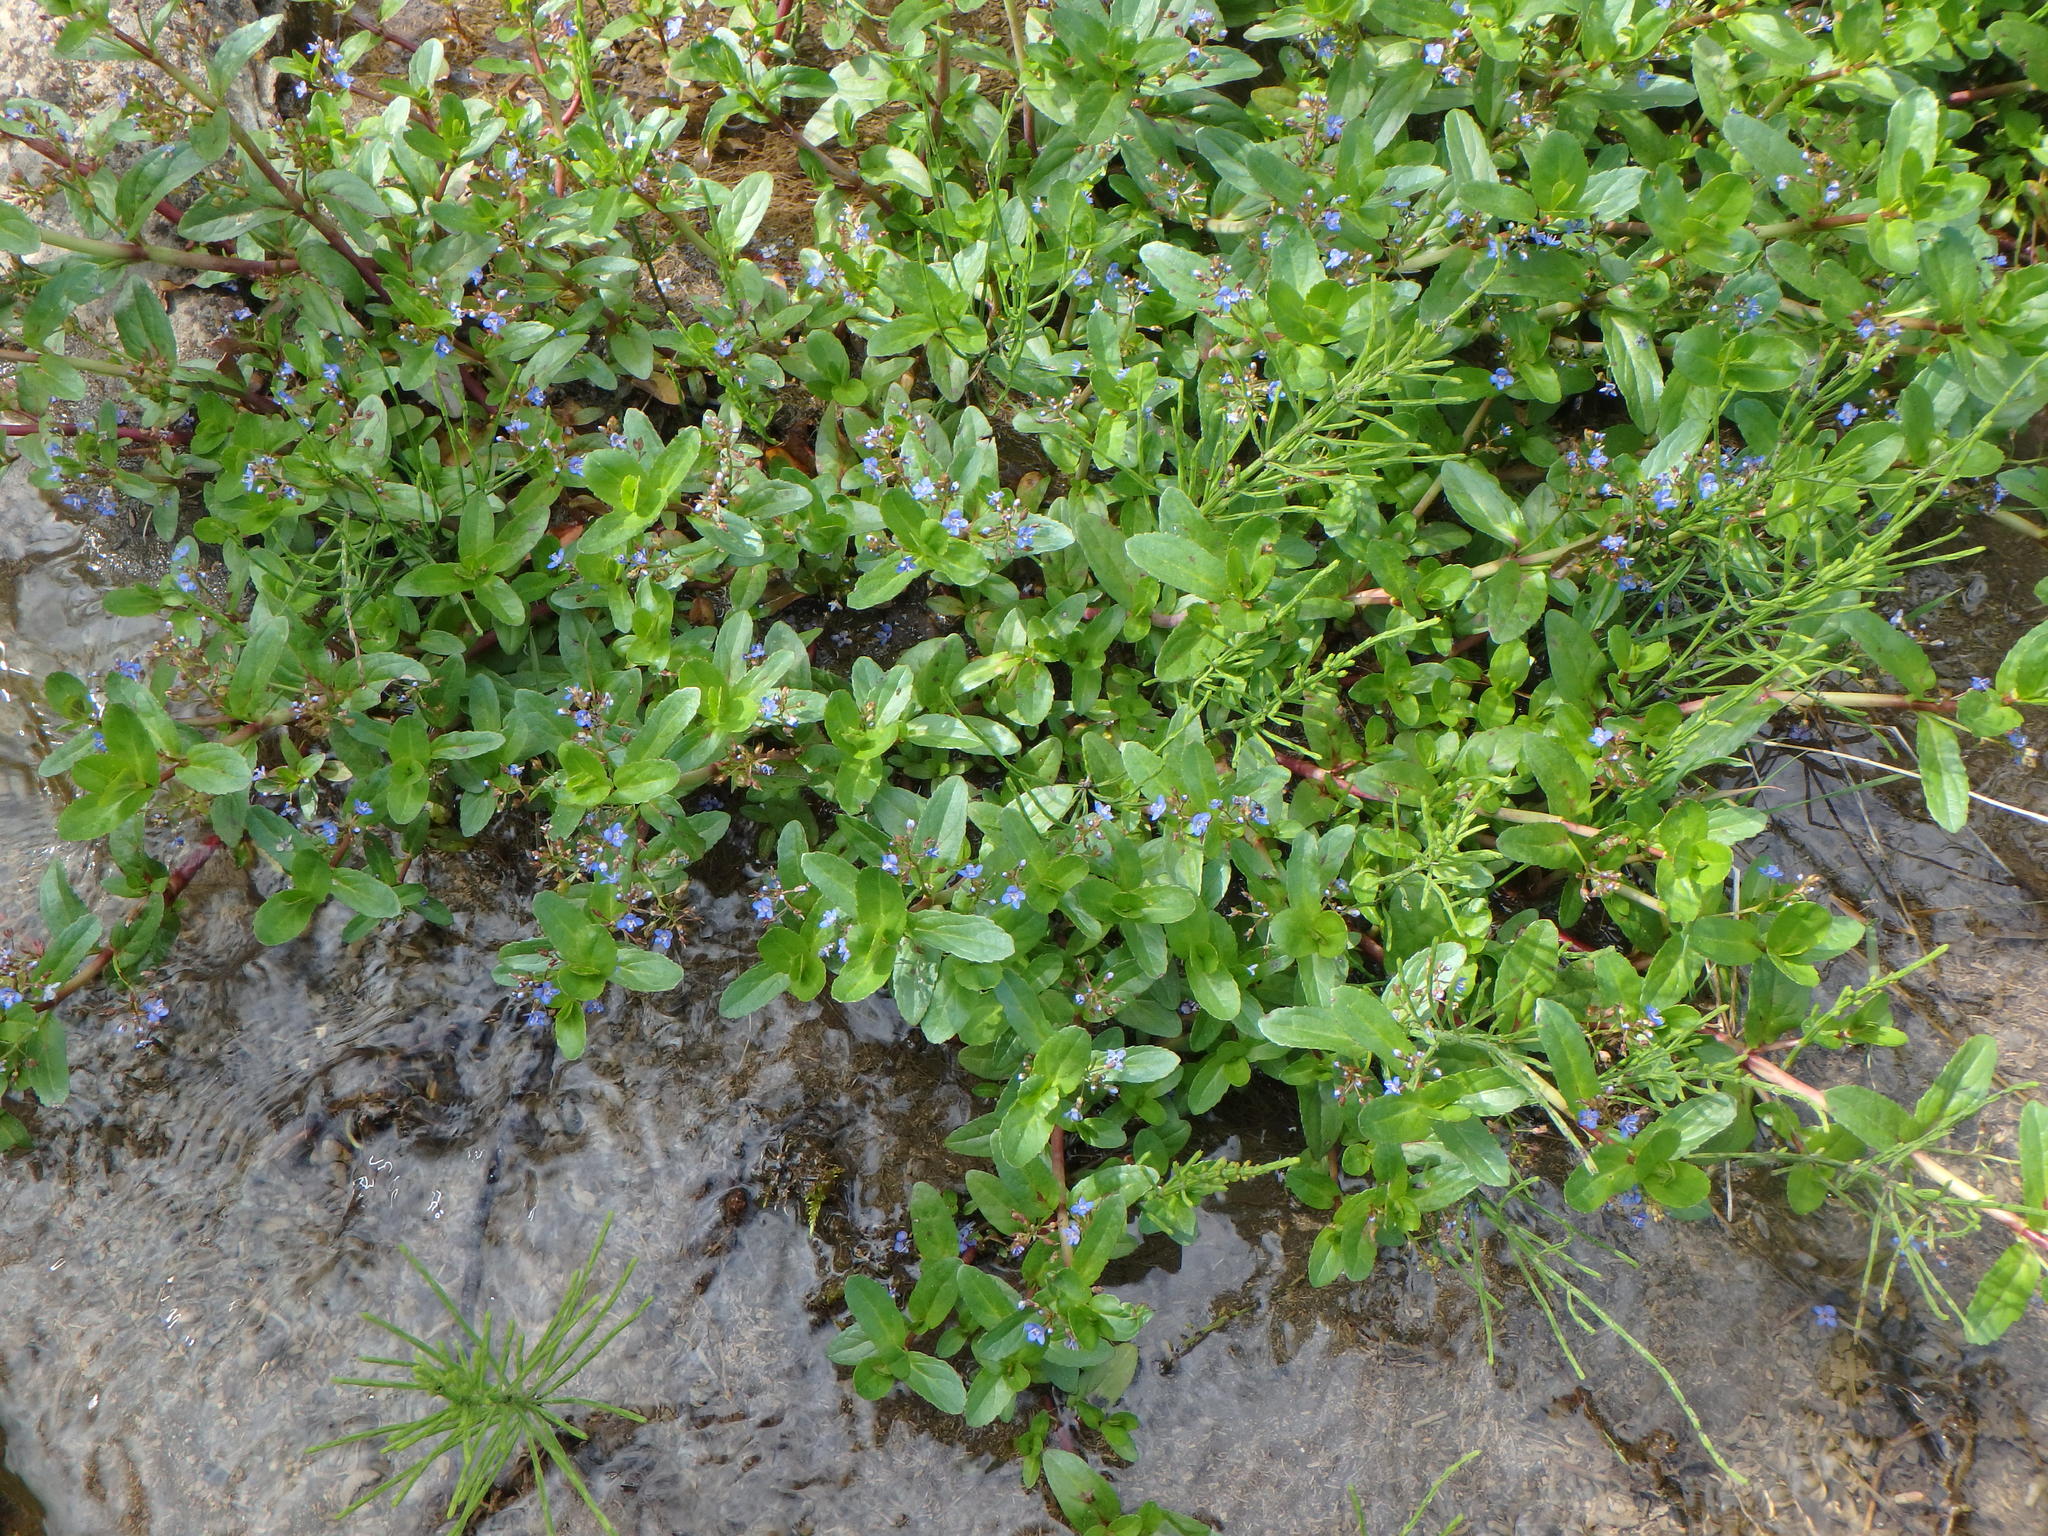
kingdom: Plantae
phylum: Tracheophyta
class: Magnoliopsida
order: Lamiales
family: Plantaginaceae
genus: Veronica
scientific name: Veronica beccabunga
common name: Brooklime
